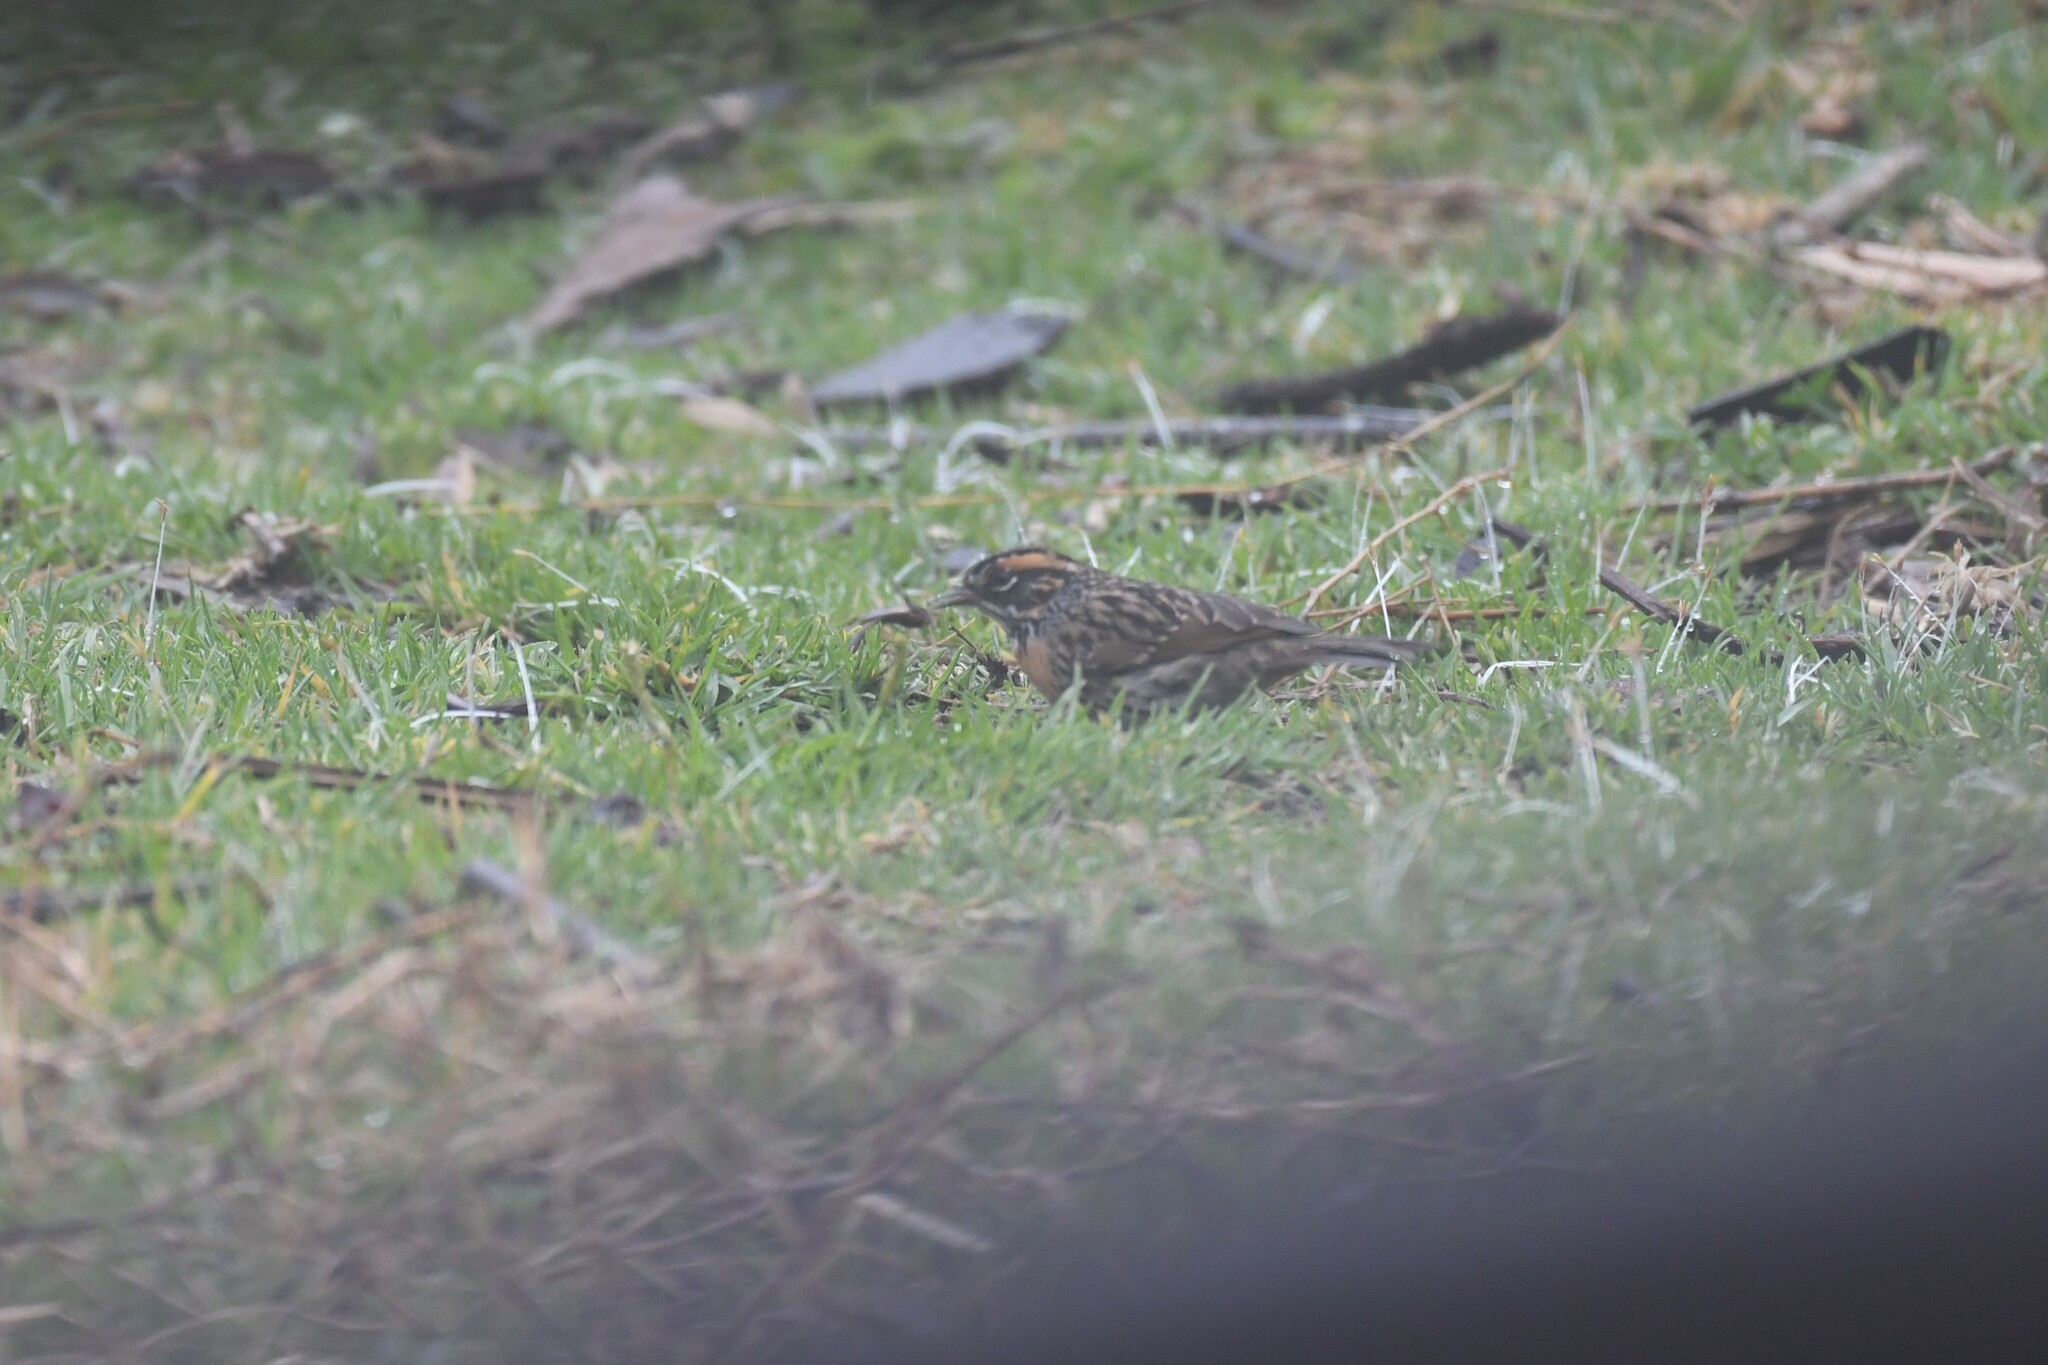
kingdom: Animalia
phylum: Chordata
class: Aves
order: Passeriformes
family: Prunellidae
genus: Prunella
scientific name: Prunella strophiata
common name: Rufous-breasted accentor
